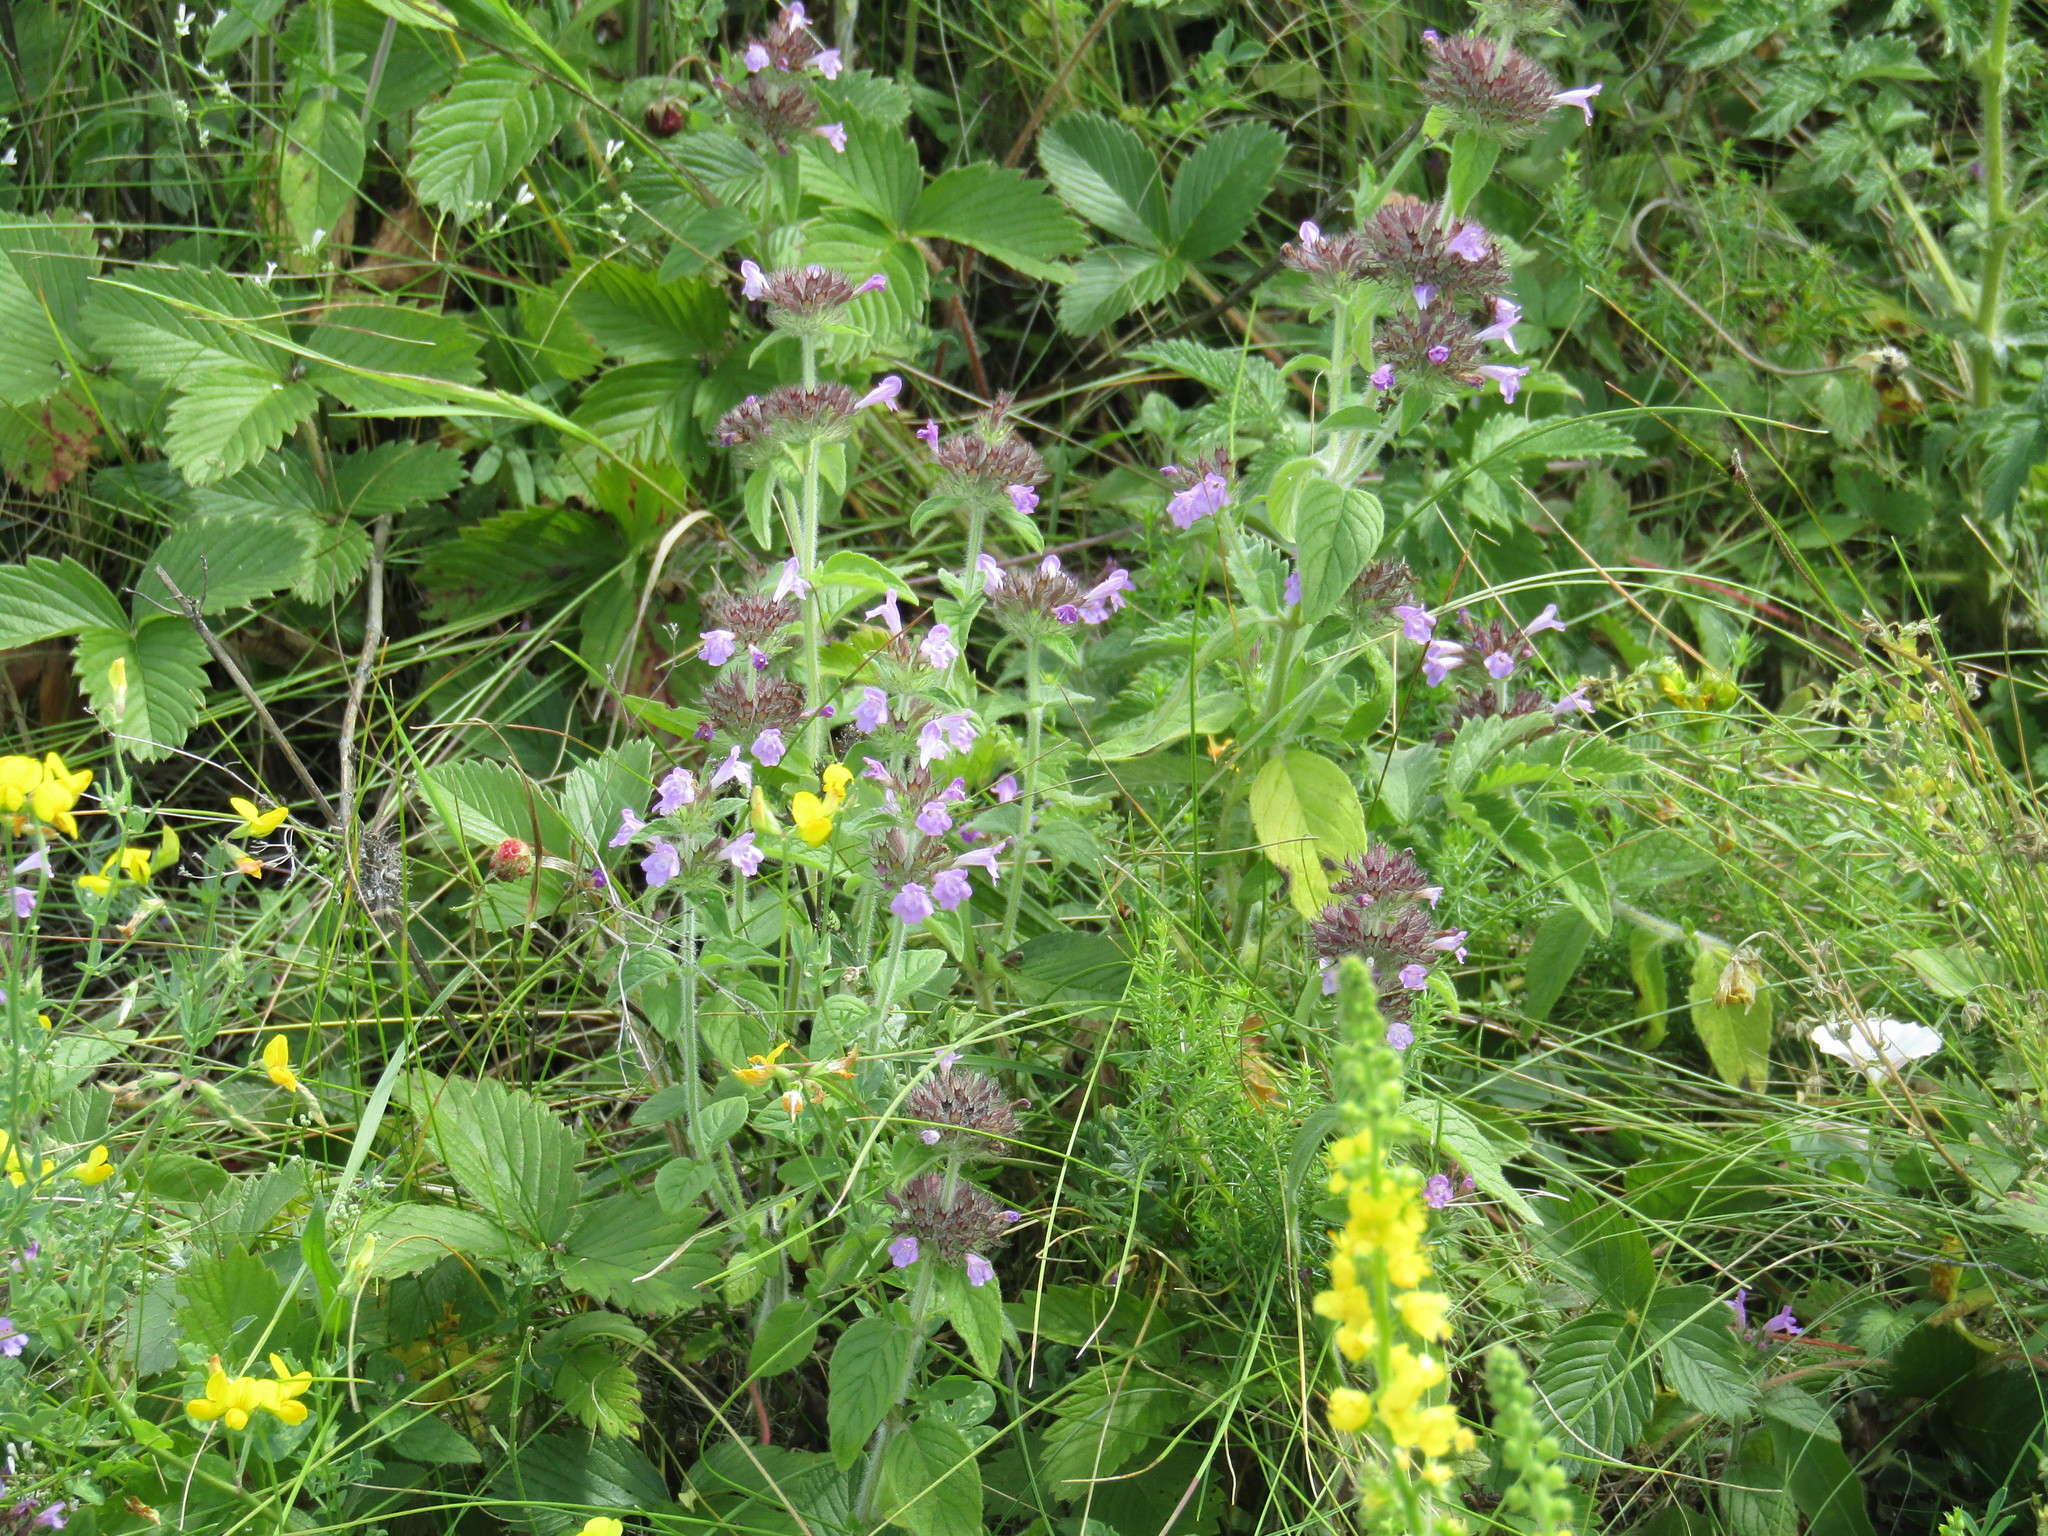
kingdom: Plantae
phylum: Tracheophyta
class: Magnoliopsida
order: Lamiales
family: Lamiaceae
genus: Clinopodium
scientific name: Clinopodium vulgare
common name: Wild basil
